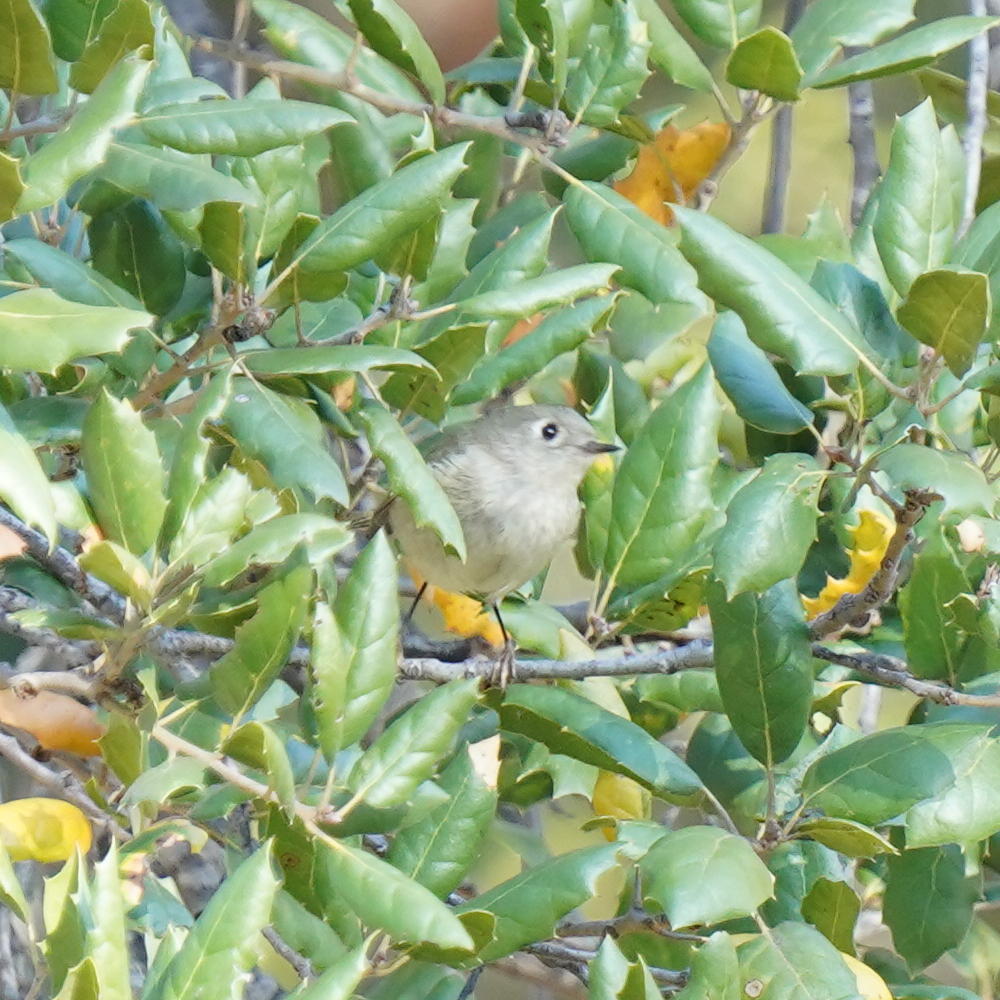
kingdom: Animalia
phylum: Chordata
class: Aves
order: Passeriformes
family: Regulidae
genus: Regulus
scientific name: Regulus calendula
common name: Ruby-crowned kinglet
